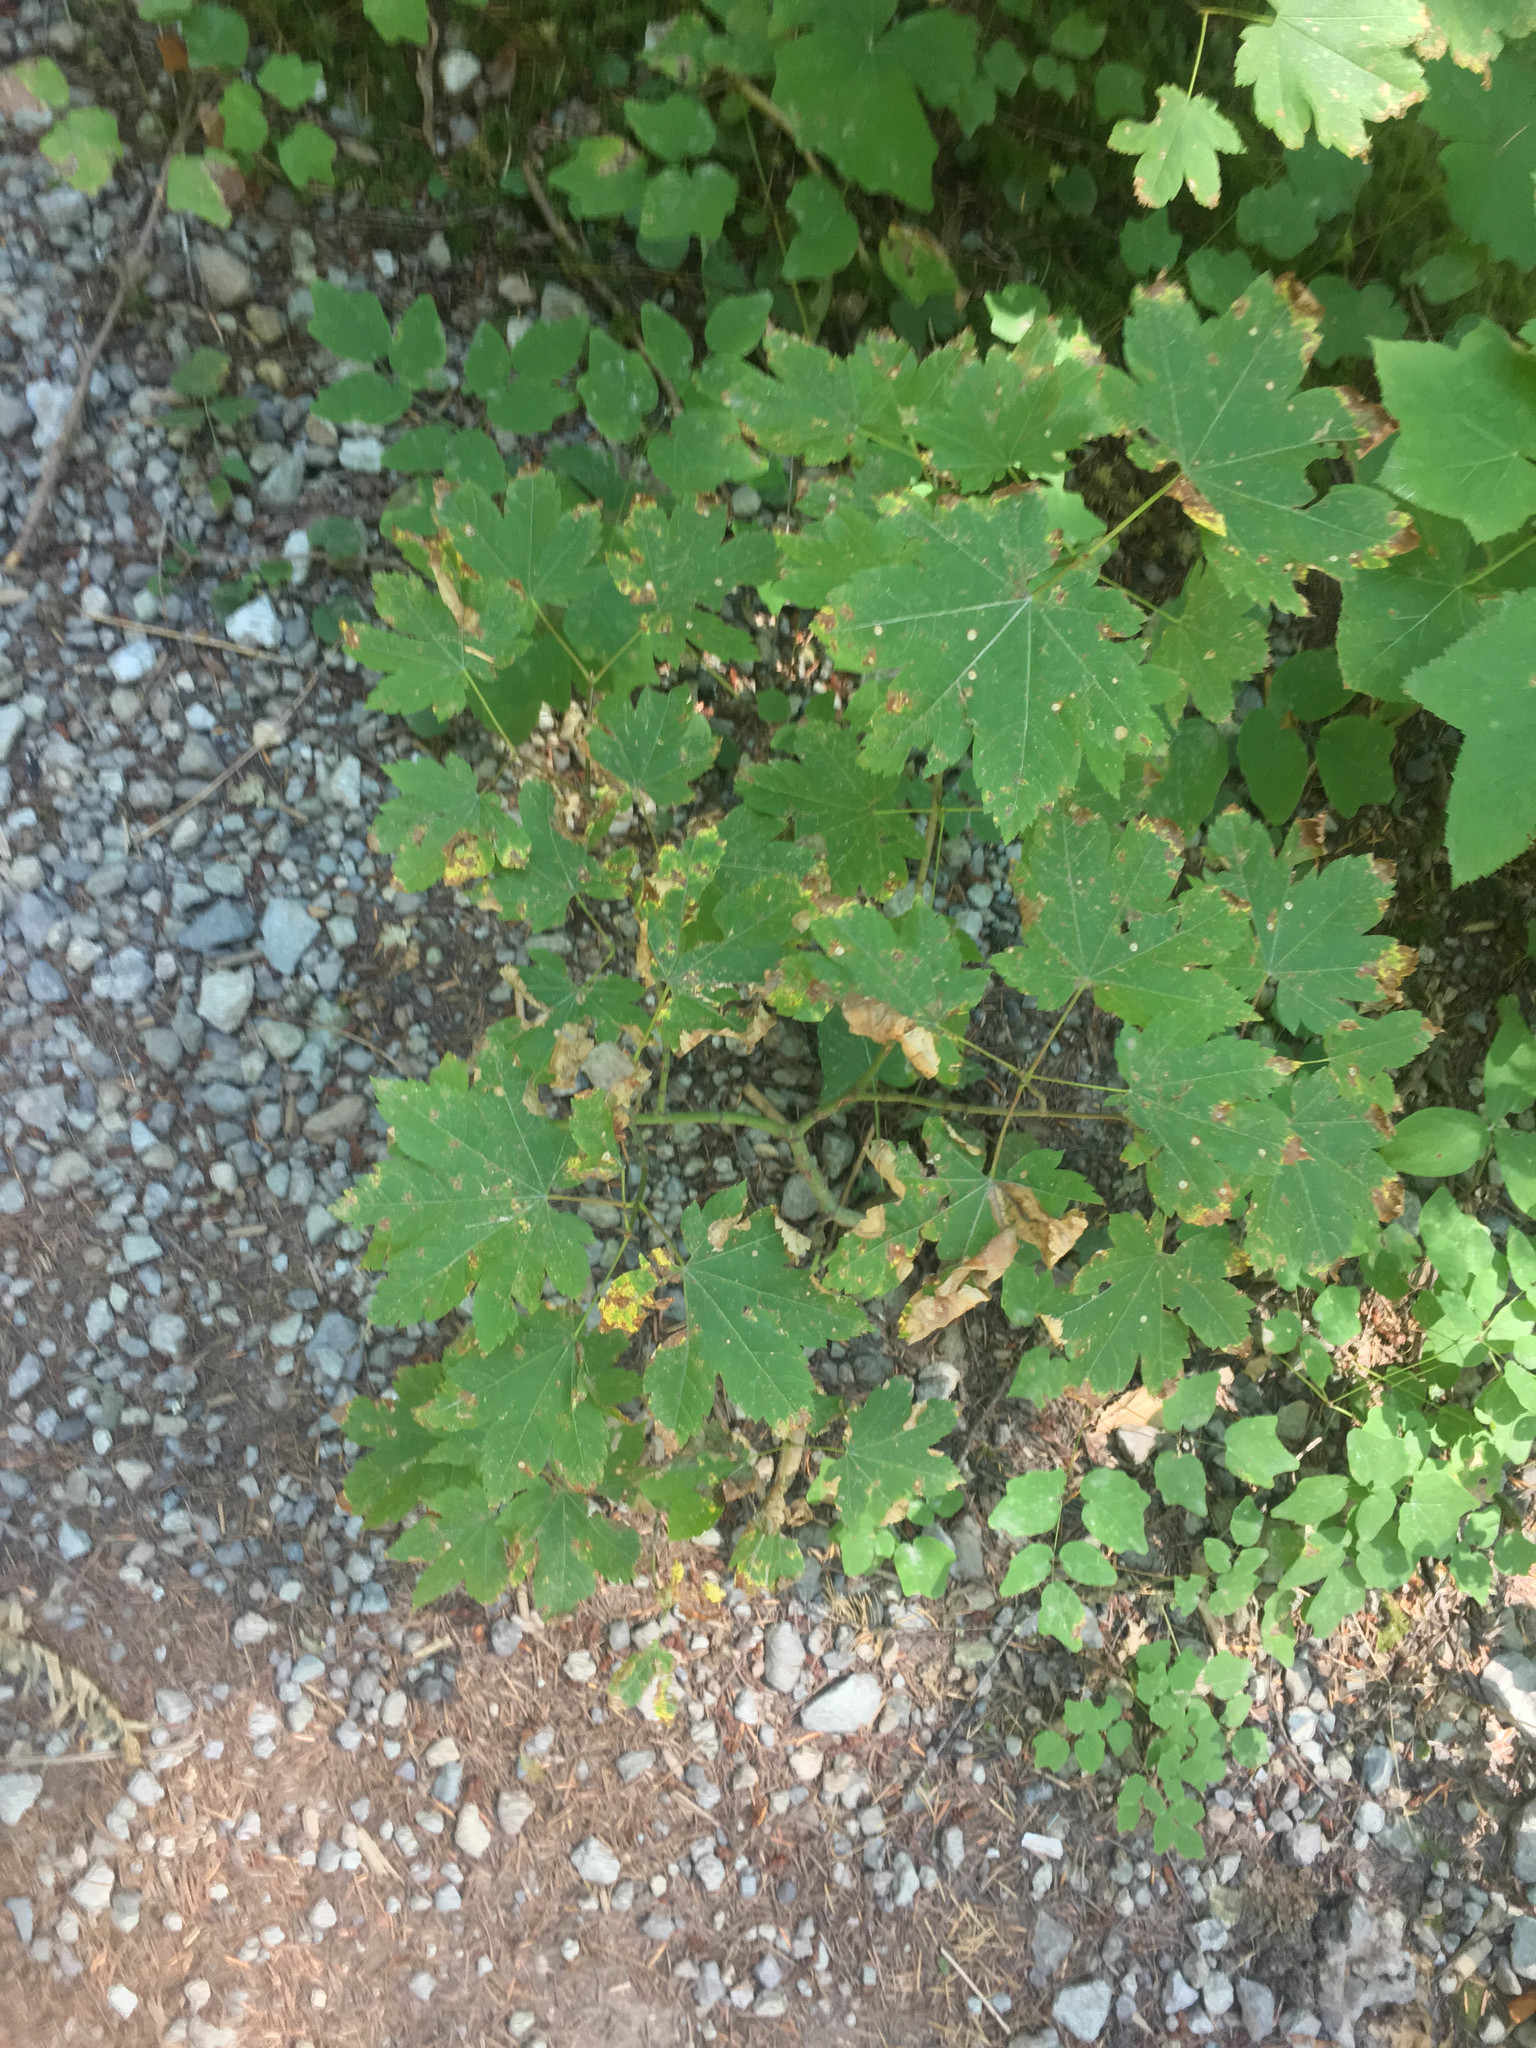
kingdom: Plantae
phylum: Tracheophyta
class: Magnoliopsida
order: Sapindales
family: Sapindaceae
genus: Acer
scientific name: Acer circinatum
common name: Vine maple
